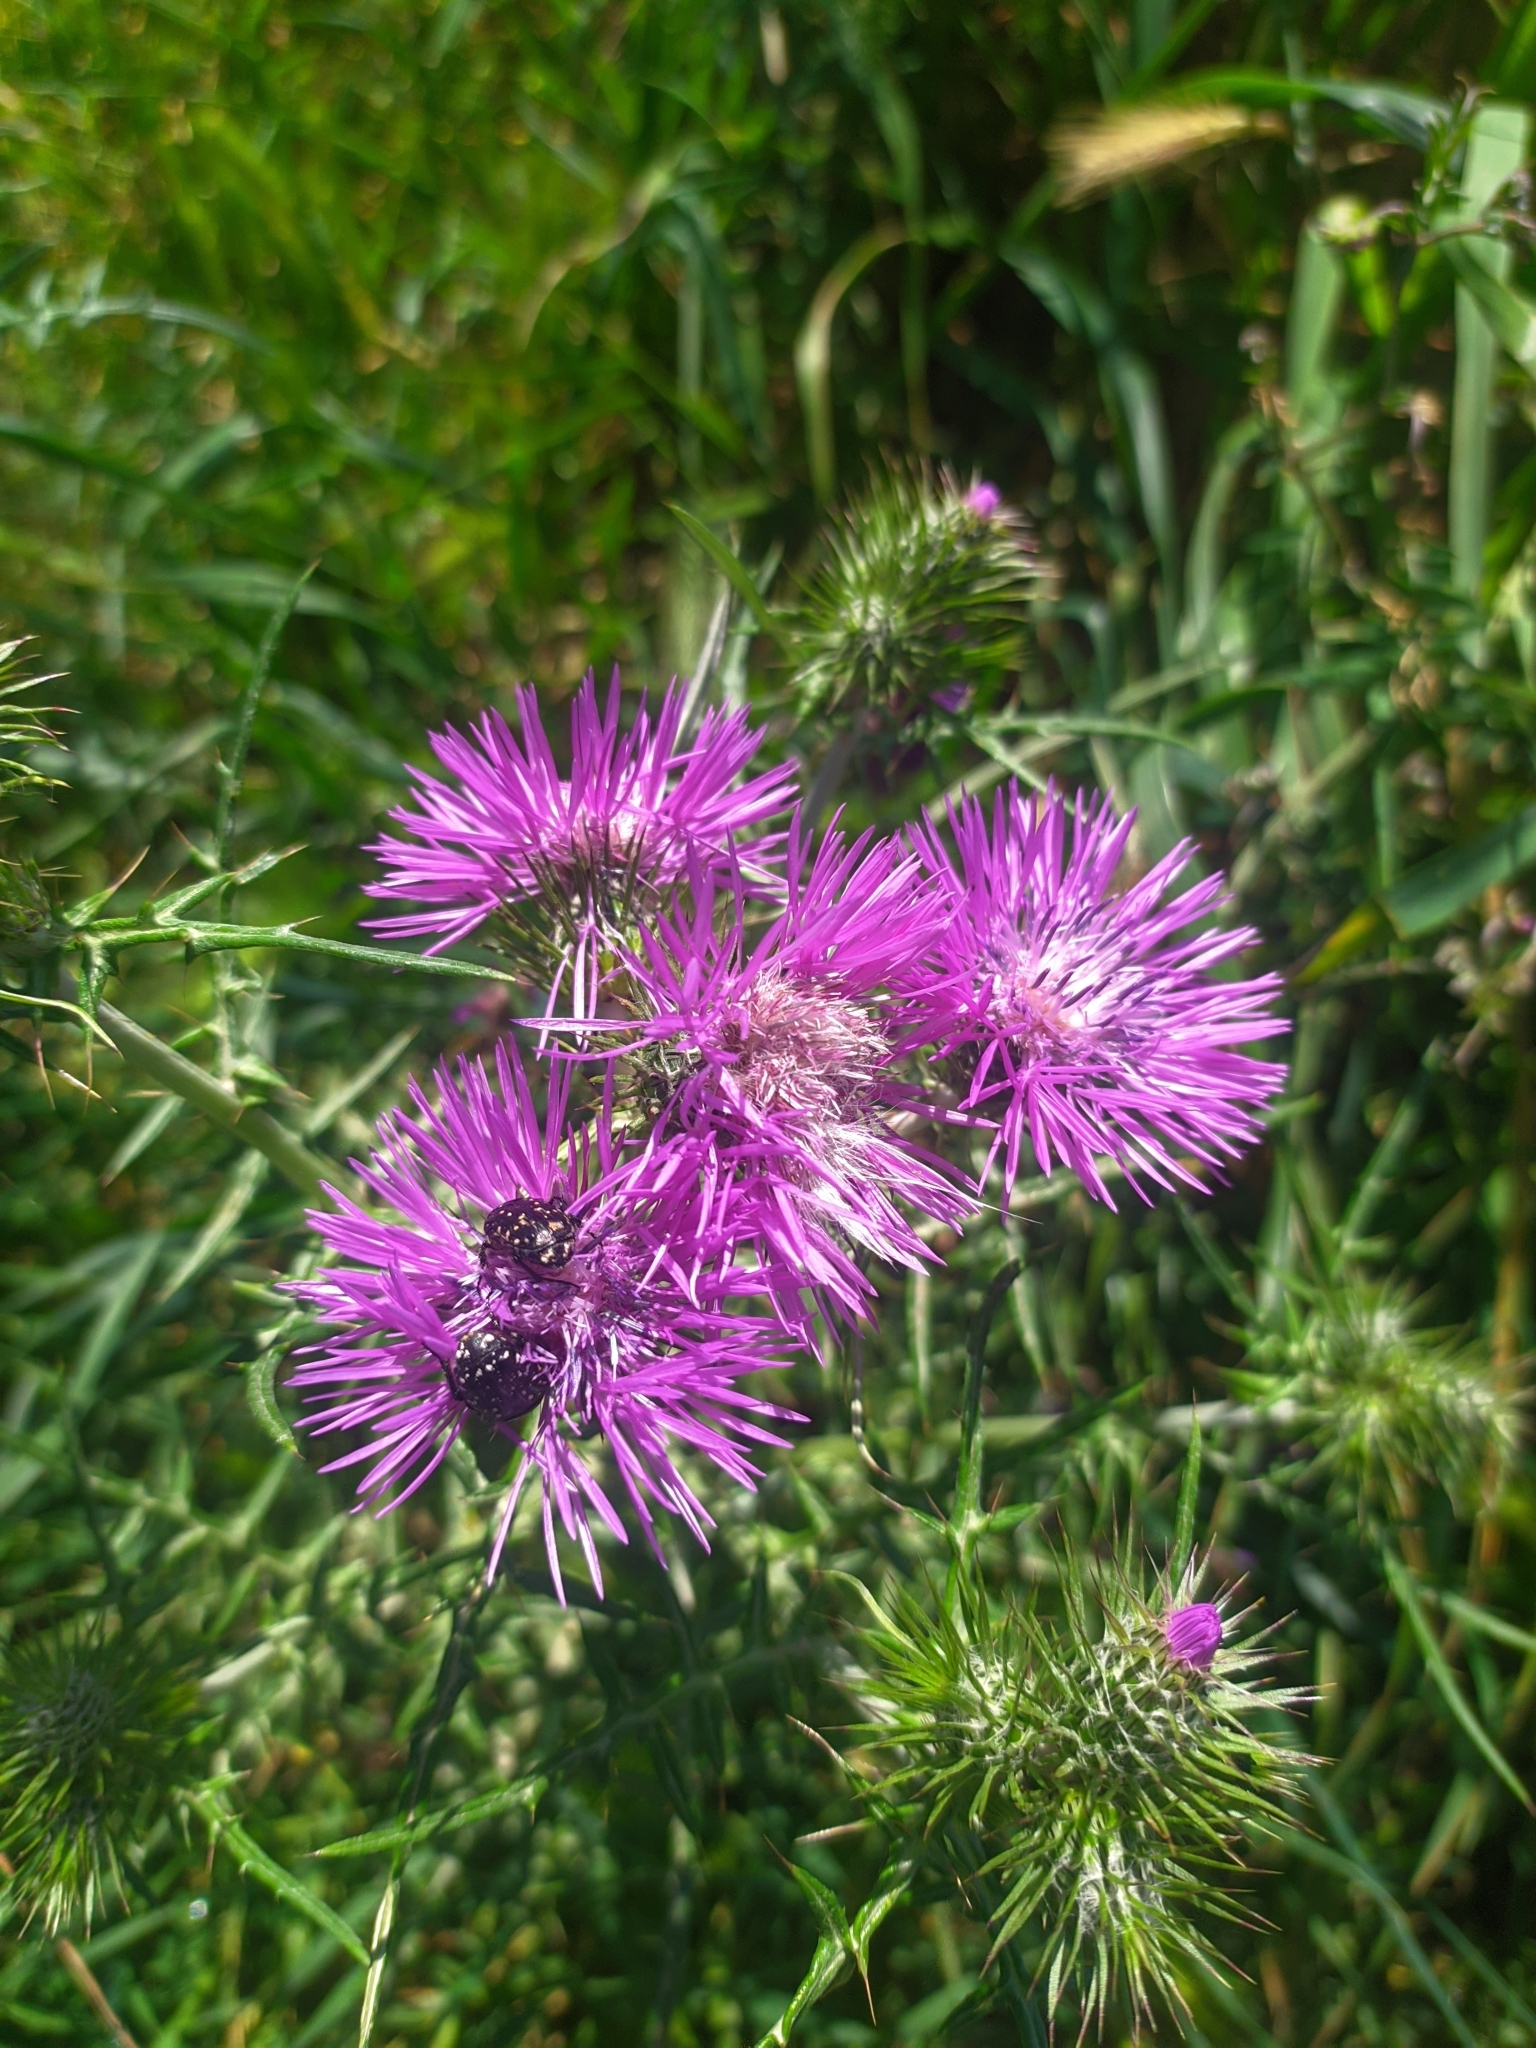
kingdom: Plantae
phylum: Tracheophyta
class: Magnoliopsida
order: Asterales
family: Asteraceae
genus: Galactites
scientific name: Galactites tomentosa
